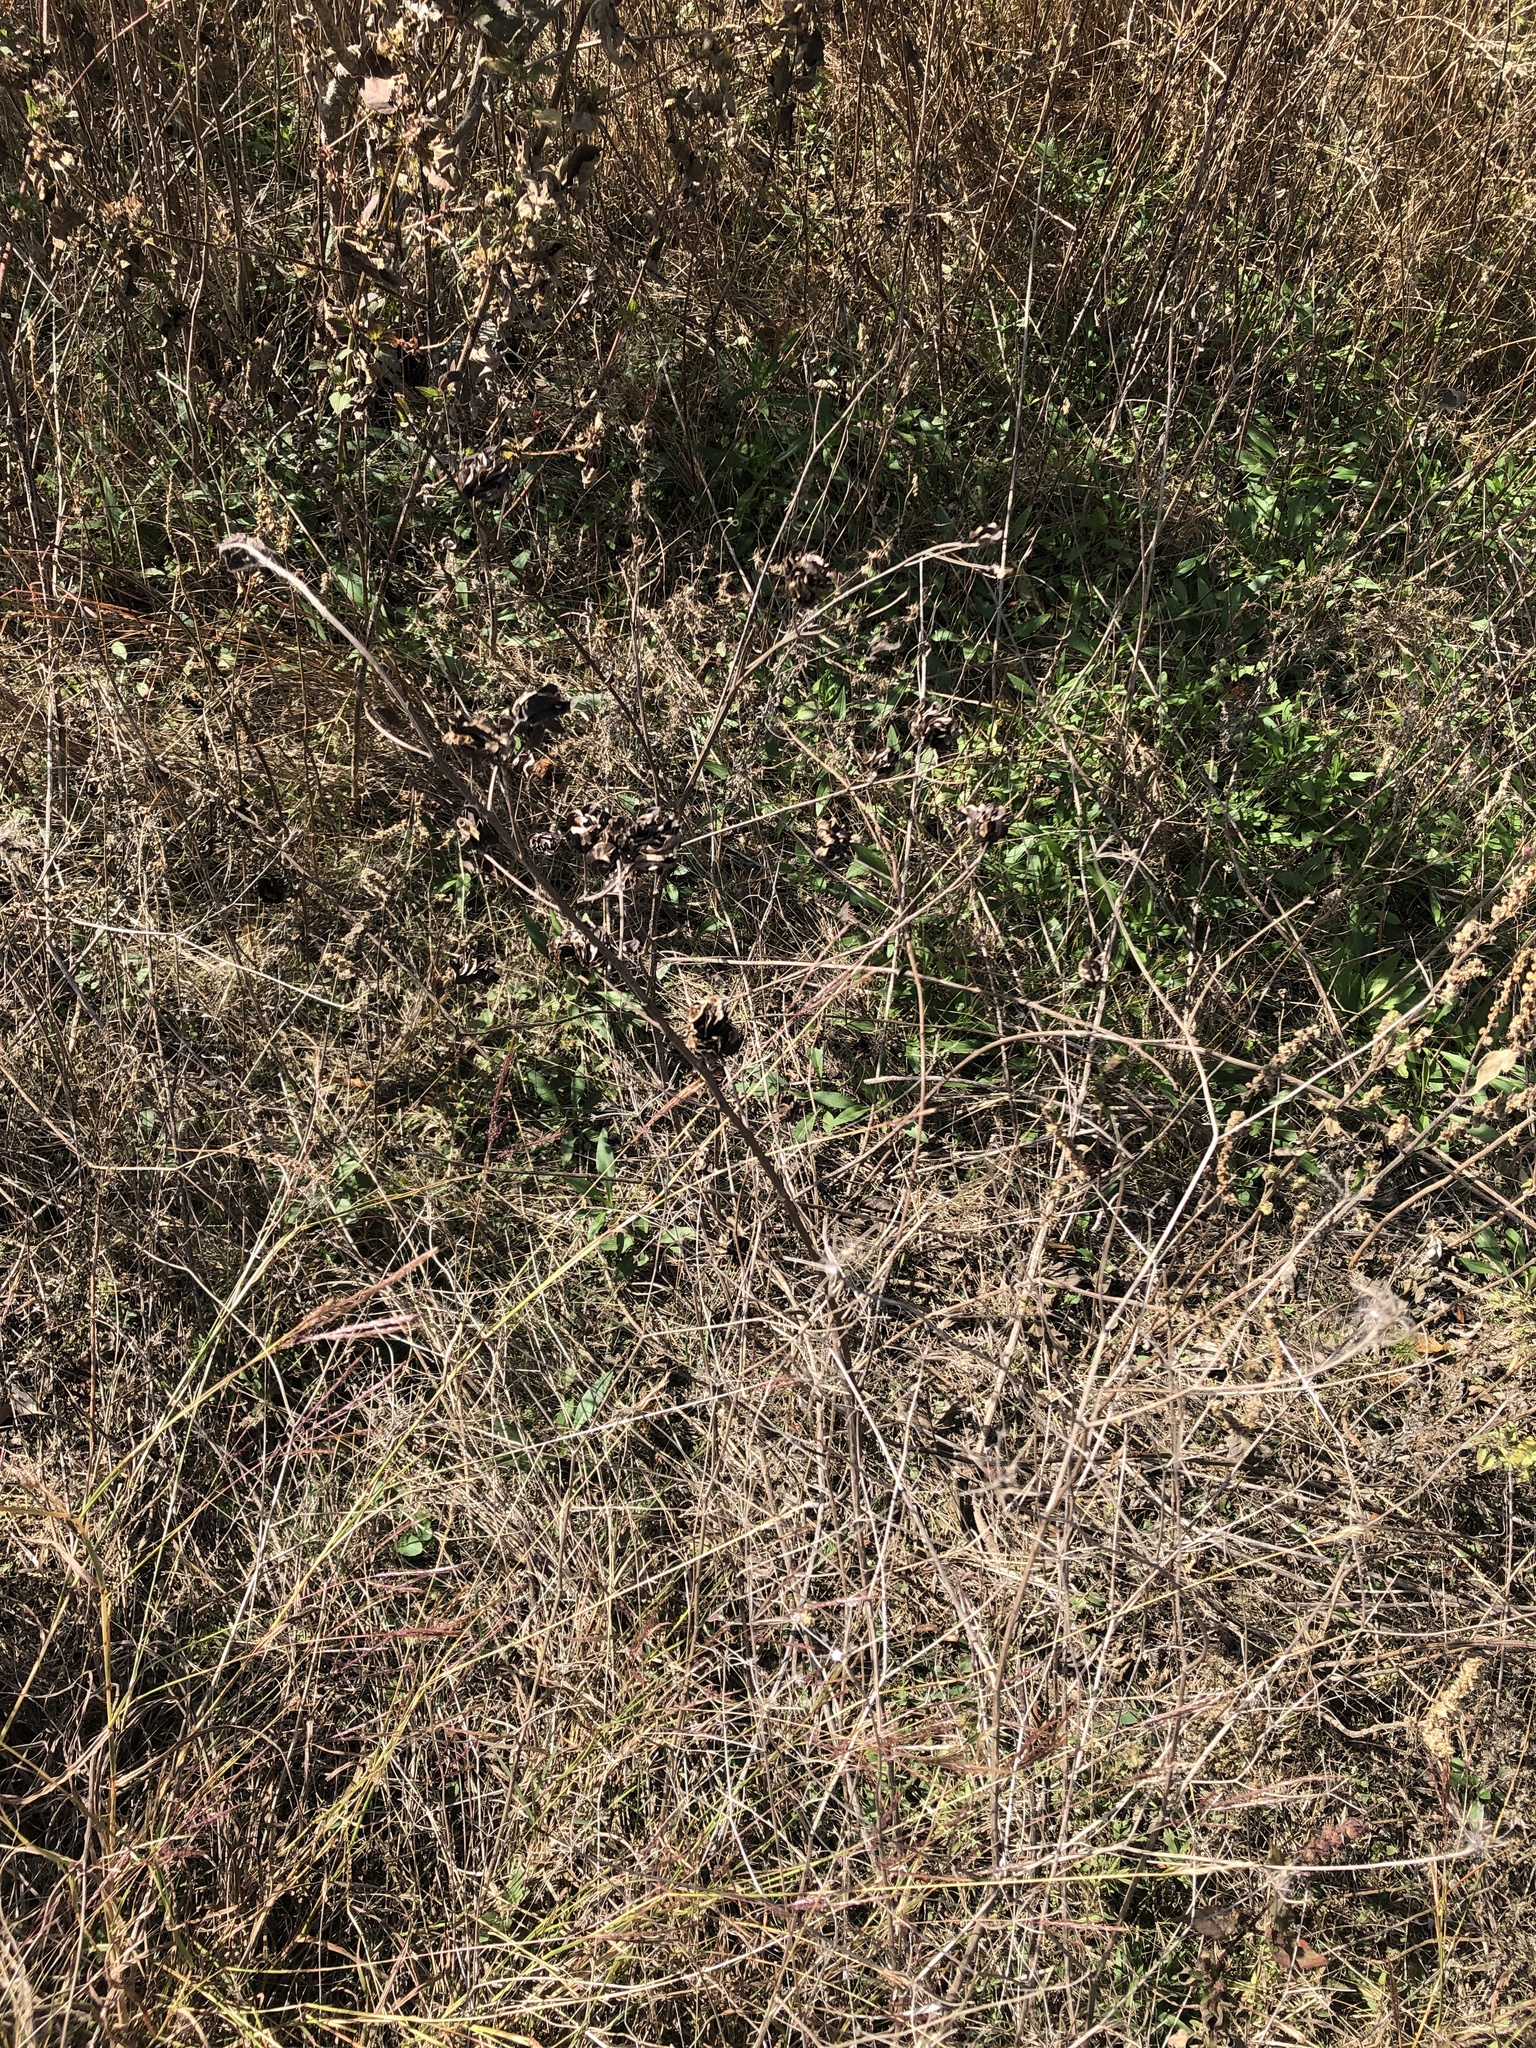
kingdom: Plantae
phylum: Tracheophyta
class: Magnoliopsida
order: Fabales
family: Fabaceae
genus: Desmanthus
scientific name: Desmanthus illinoensis
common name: Illinois bundle-flower
